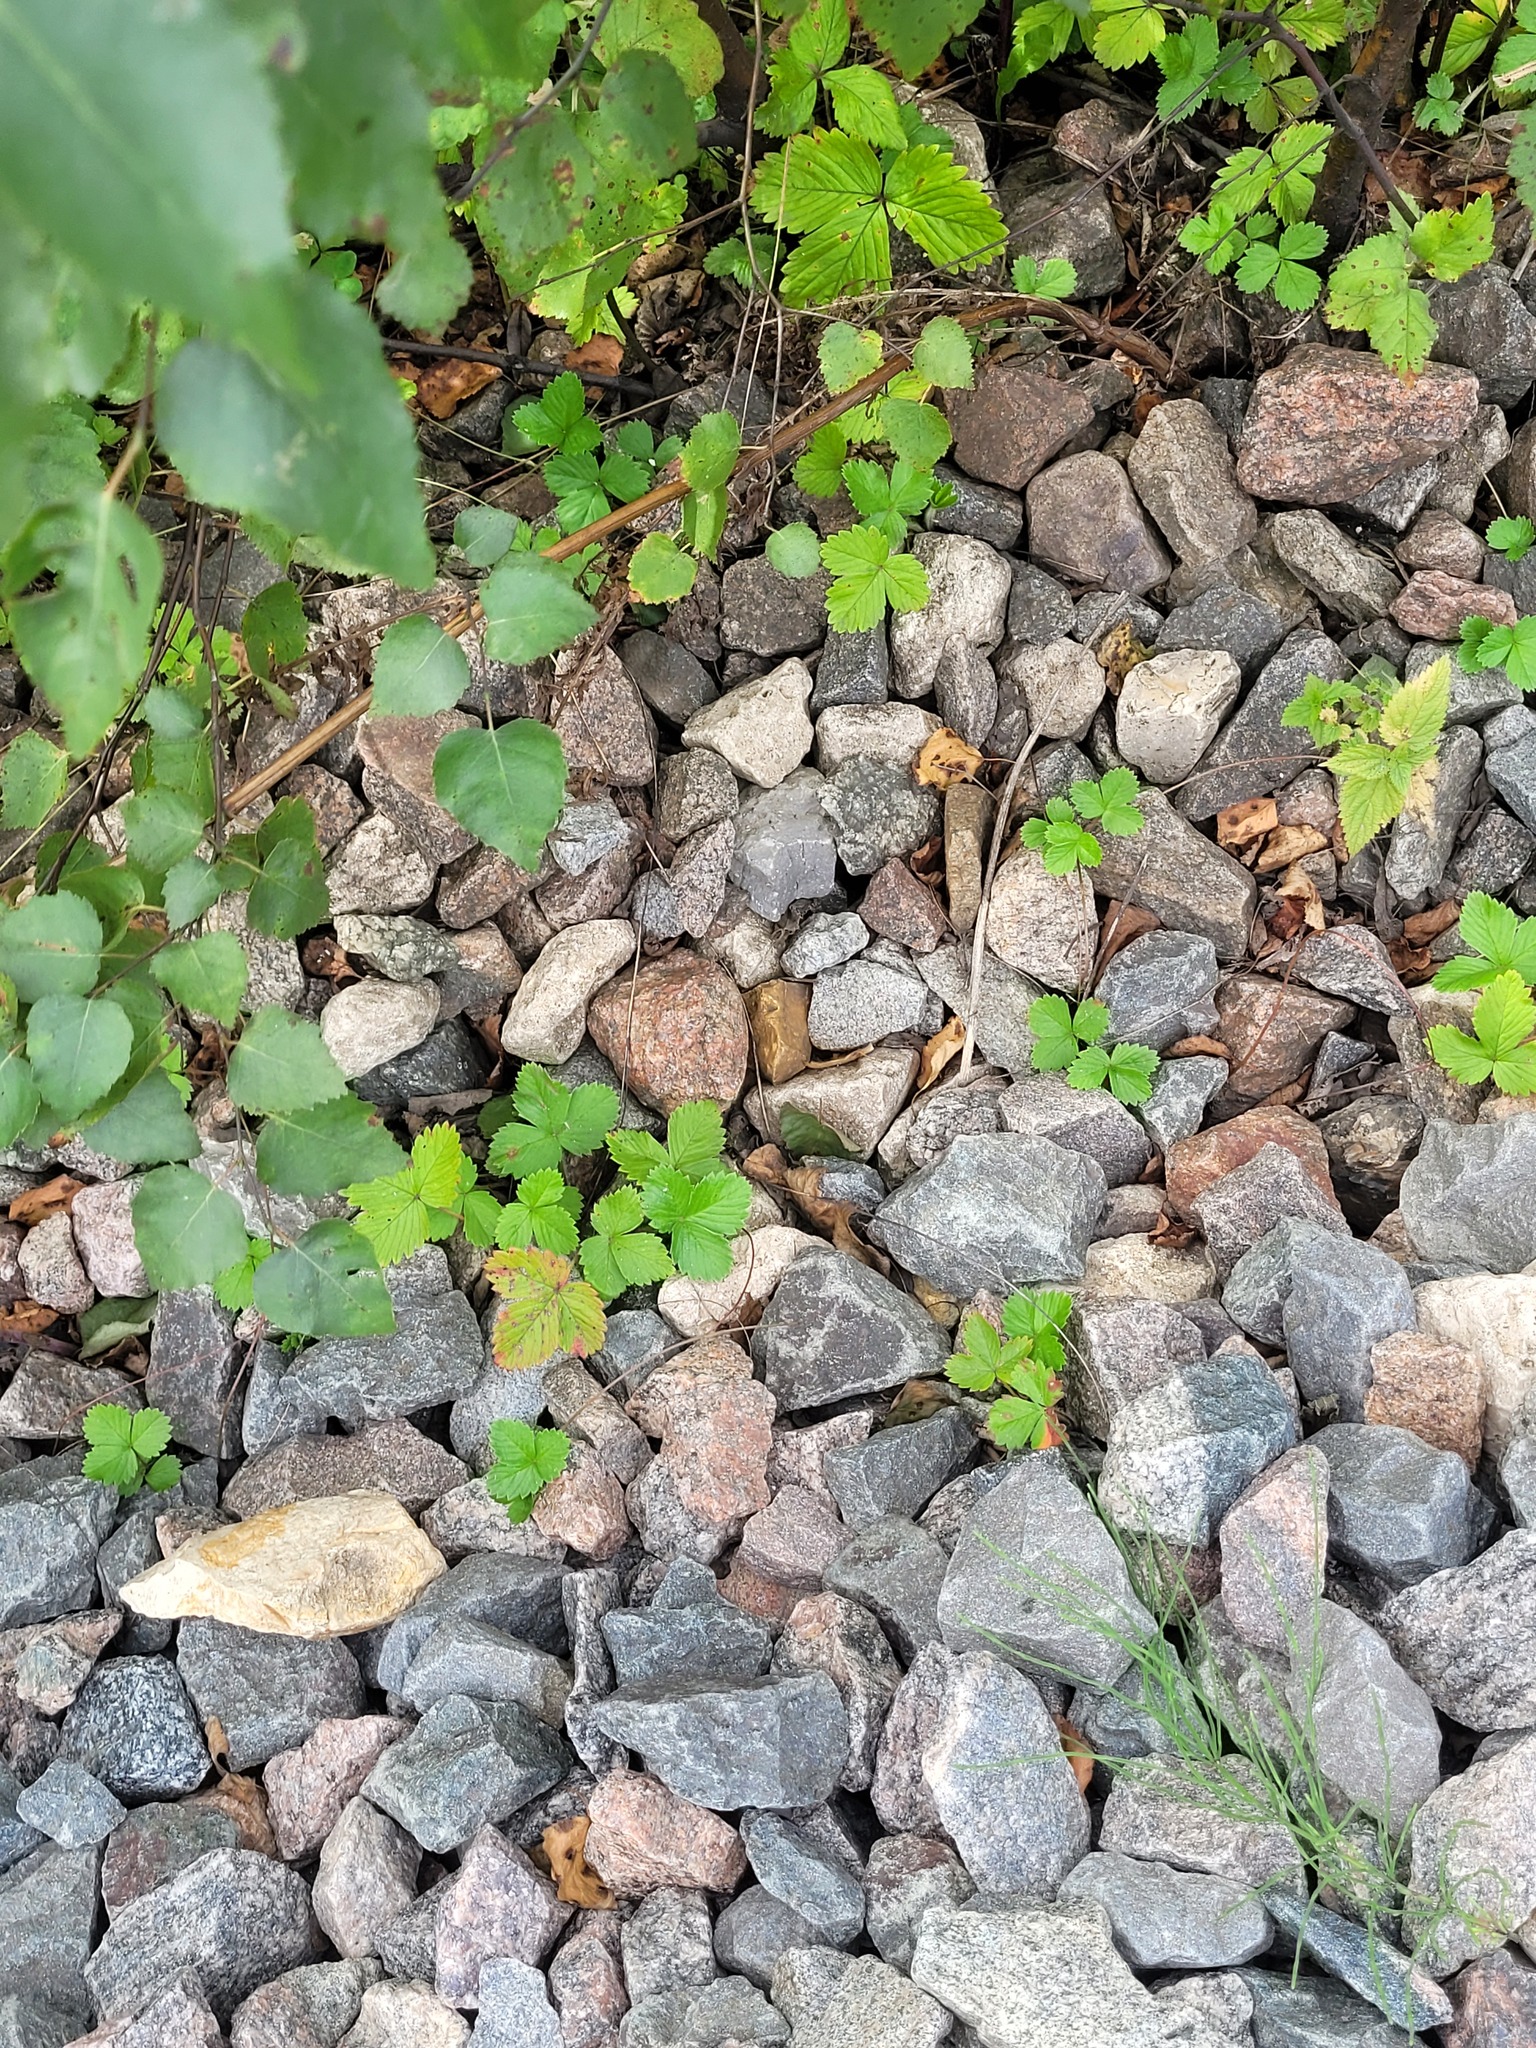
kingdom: Plantae
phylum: Tracheophyta
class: Magnoliopsida
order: Rosales
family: Rosaceae
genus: Fragaria
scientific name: Fragaria vesca
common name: Wild strawberry
